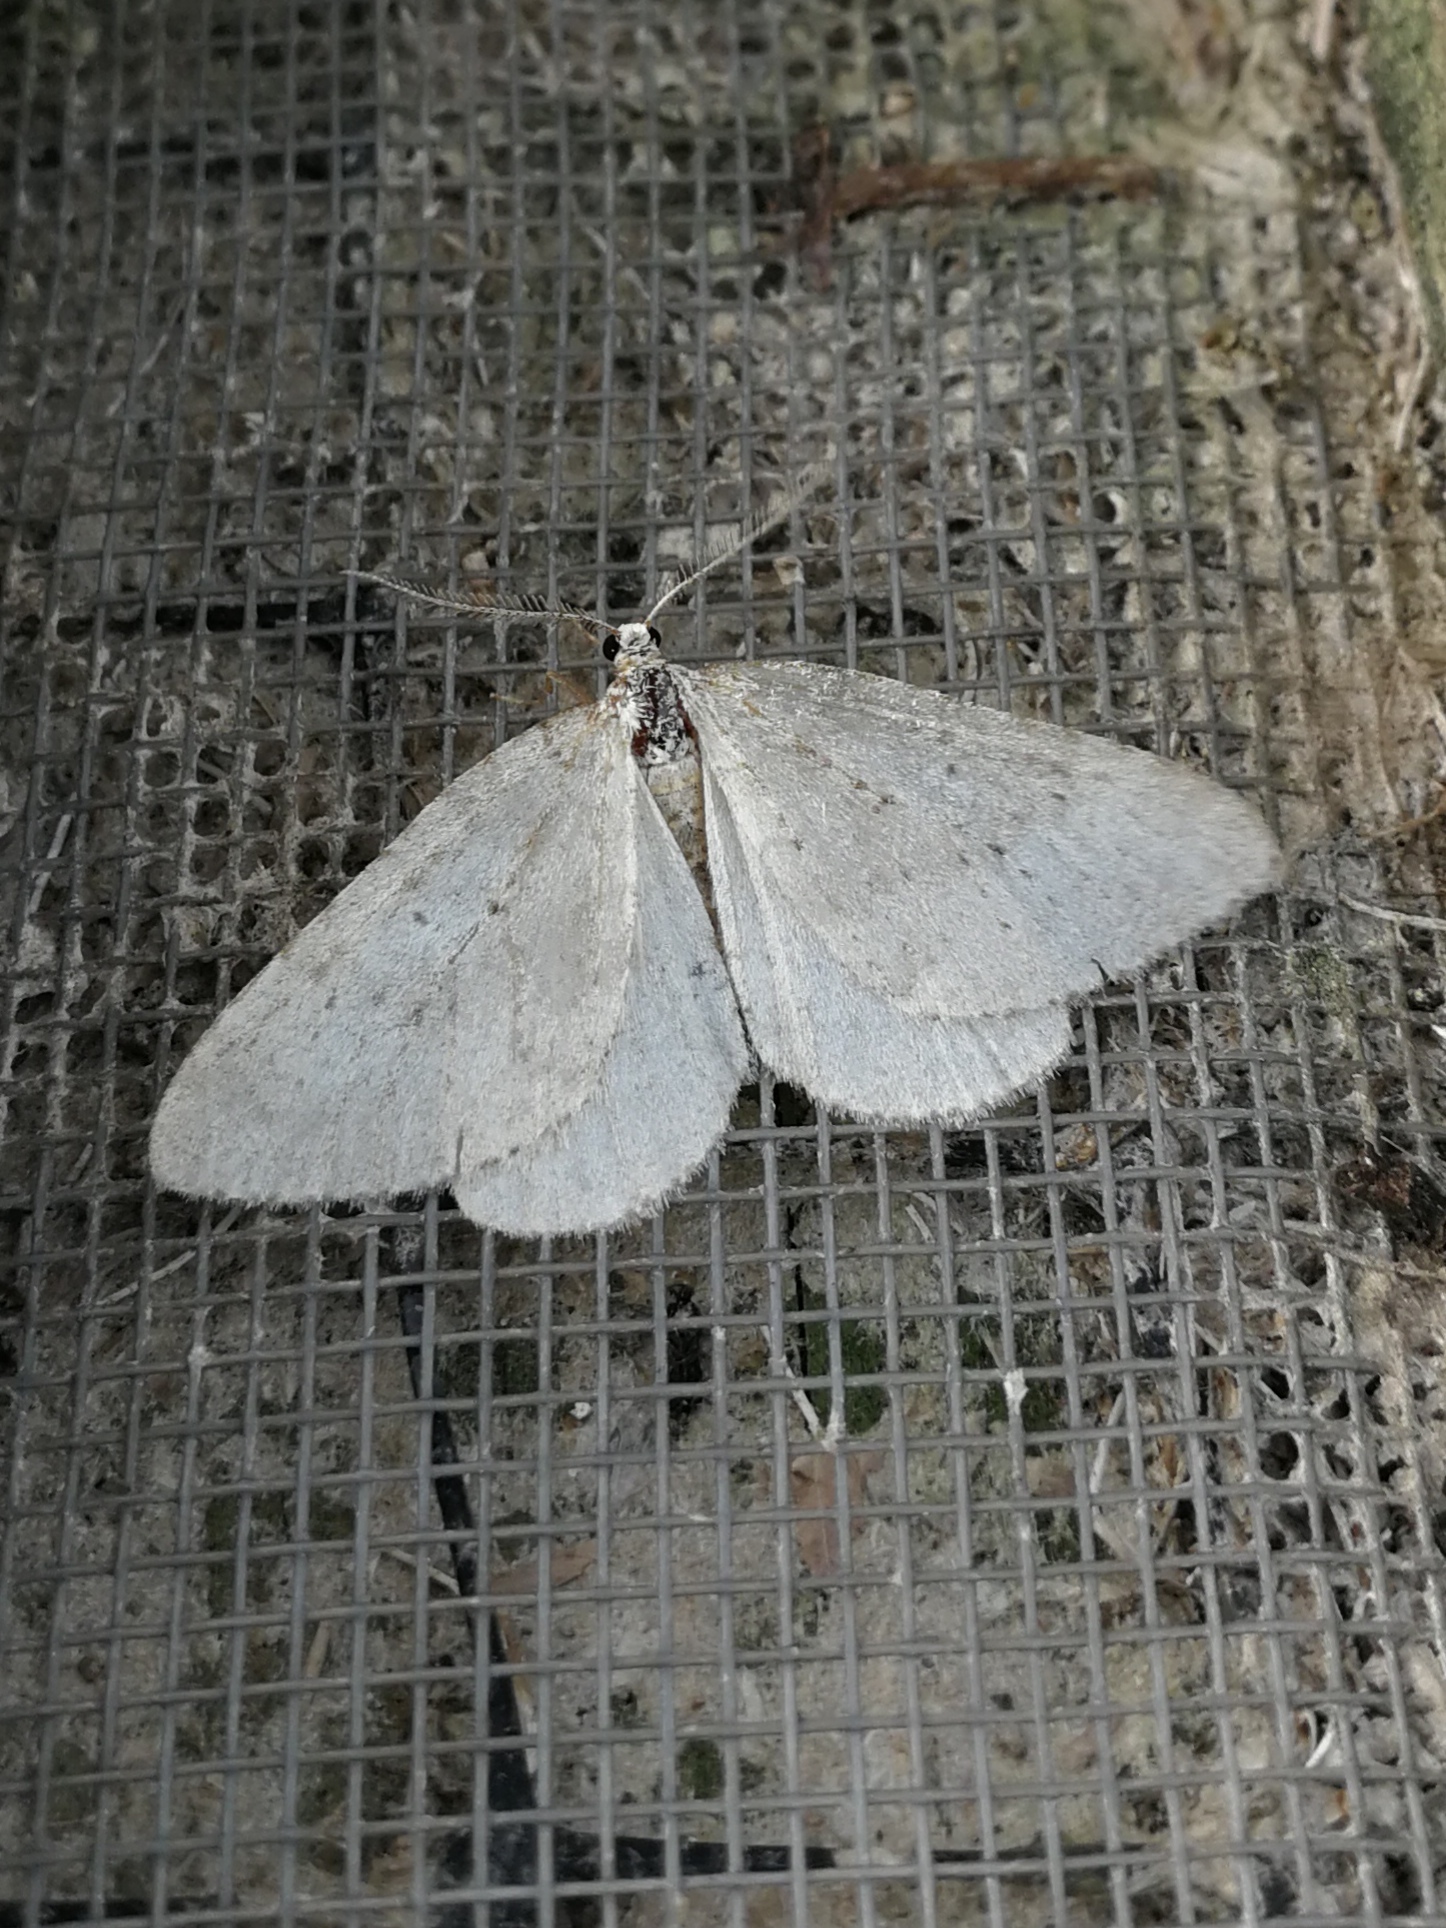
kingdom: Animalia
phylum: Arthropoda
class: Insecta
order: Lepidoptera
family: Geometridae
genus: Colostygia
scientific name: Colostygia multistrigaria
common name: Mottled grey
